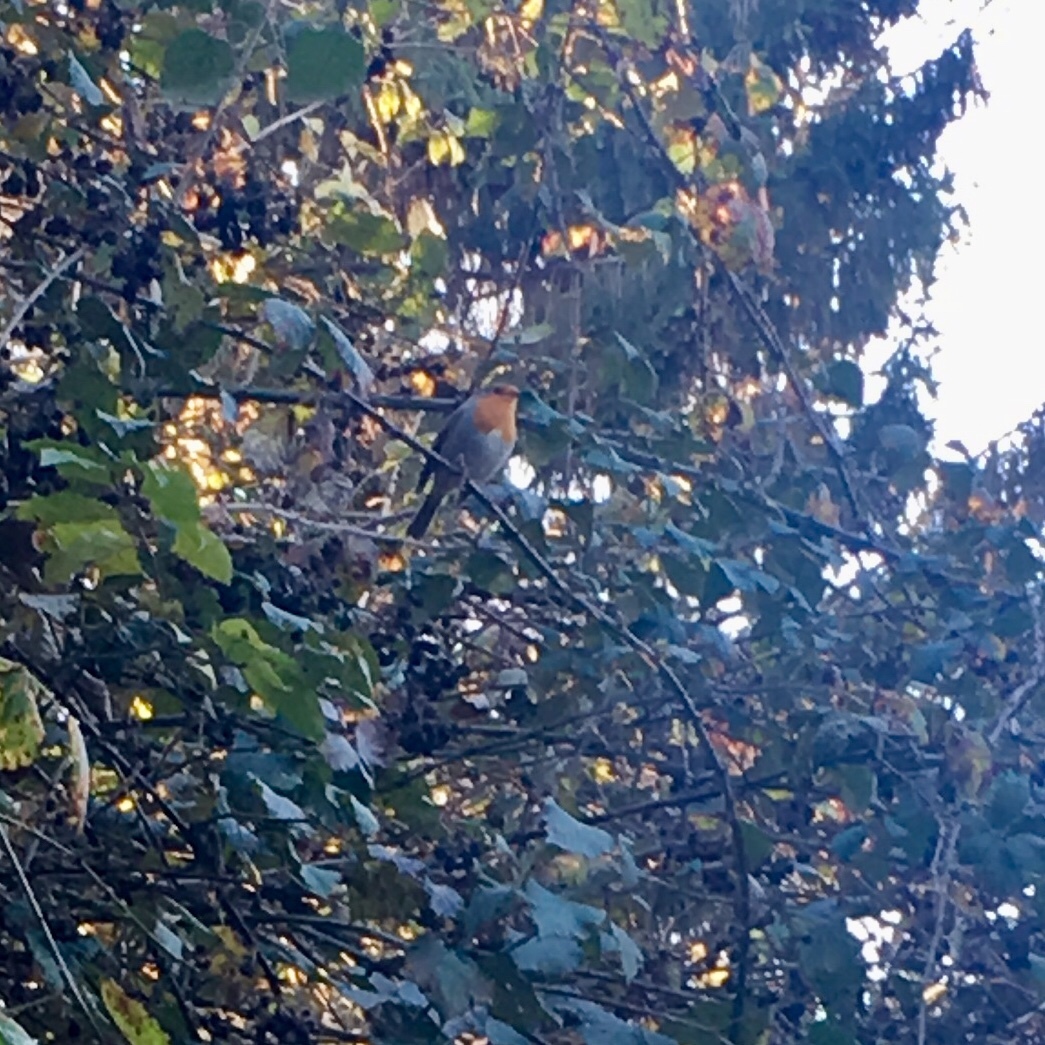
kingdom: Animalia
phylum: Chordata
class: Aves
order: Passeriformes
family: Muscicapidae
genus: Erithacus
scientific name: Erithacus rubecula
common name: European robin
